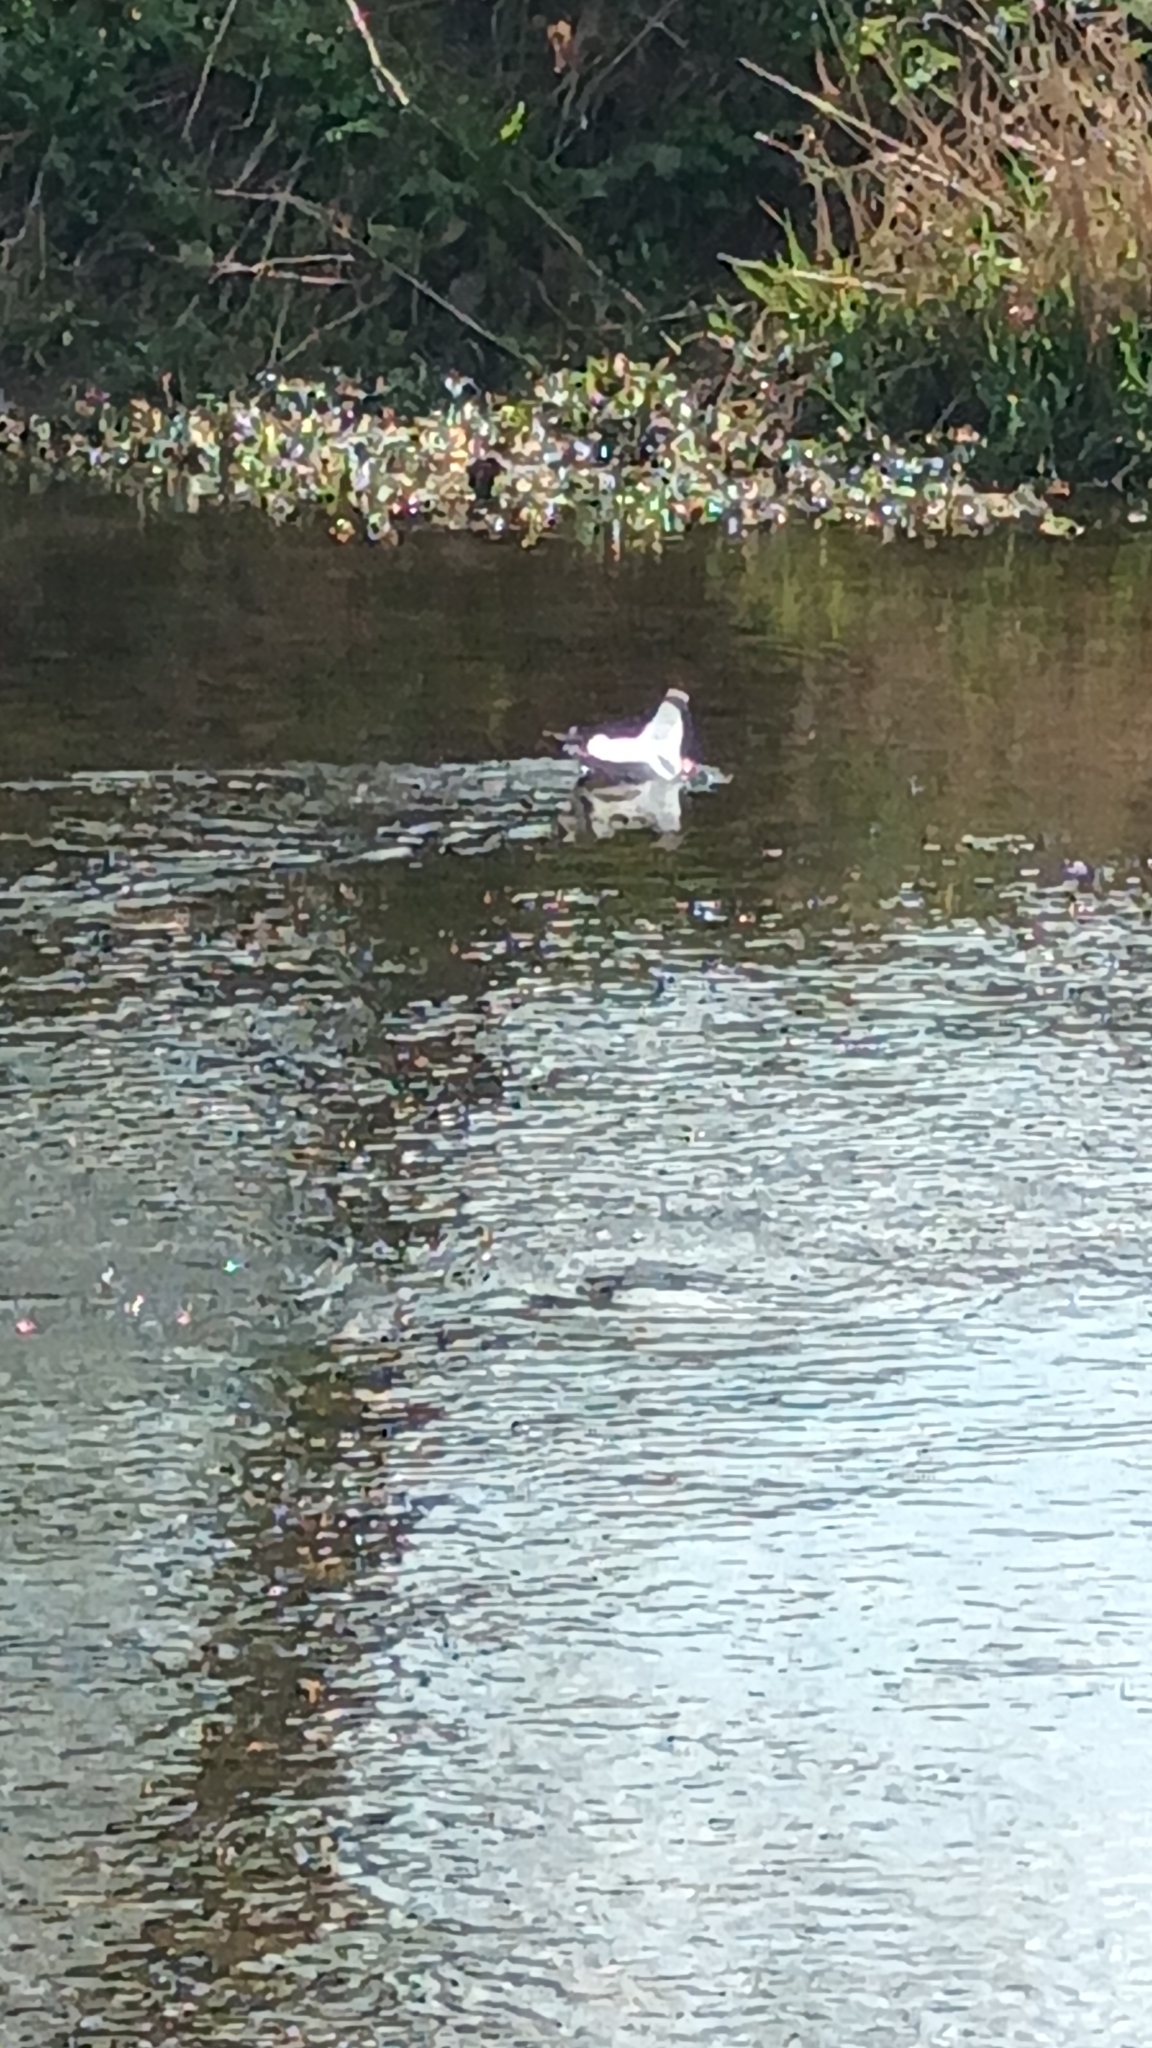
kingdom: Animalia
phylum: Chordata
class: Aves
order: Charadriiformes
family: Laridae
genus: Chroicocephalus
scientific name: Chroicocephalus ridibundus
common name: Black-headed gull
